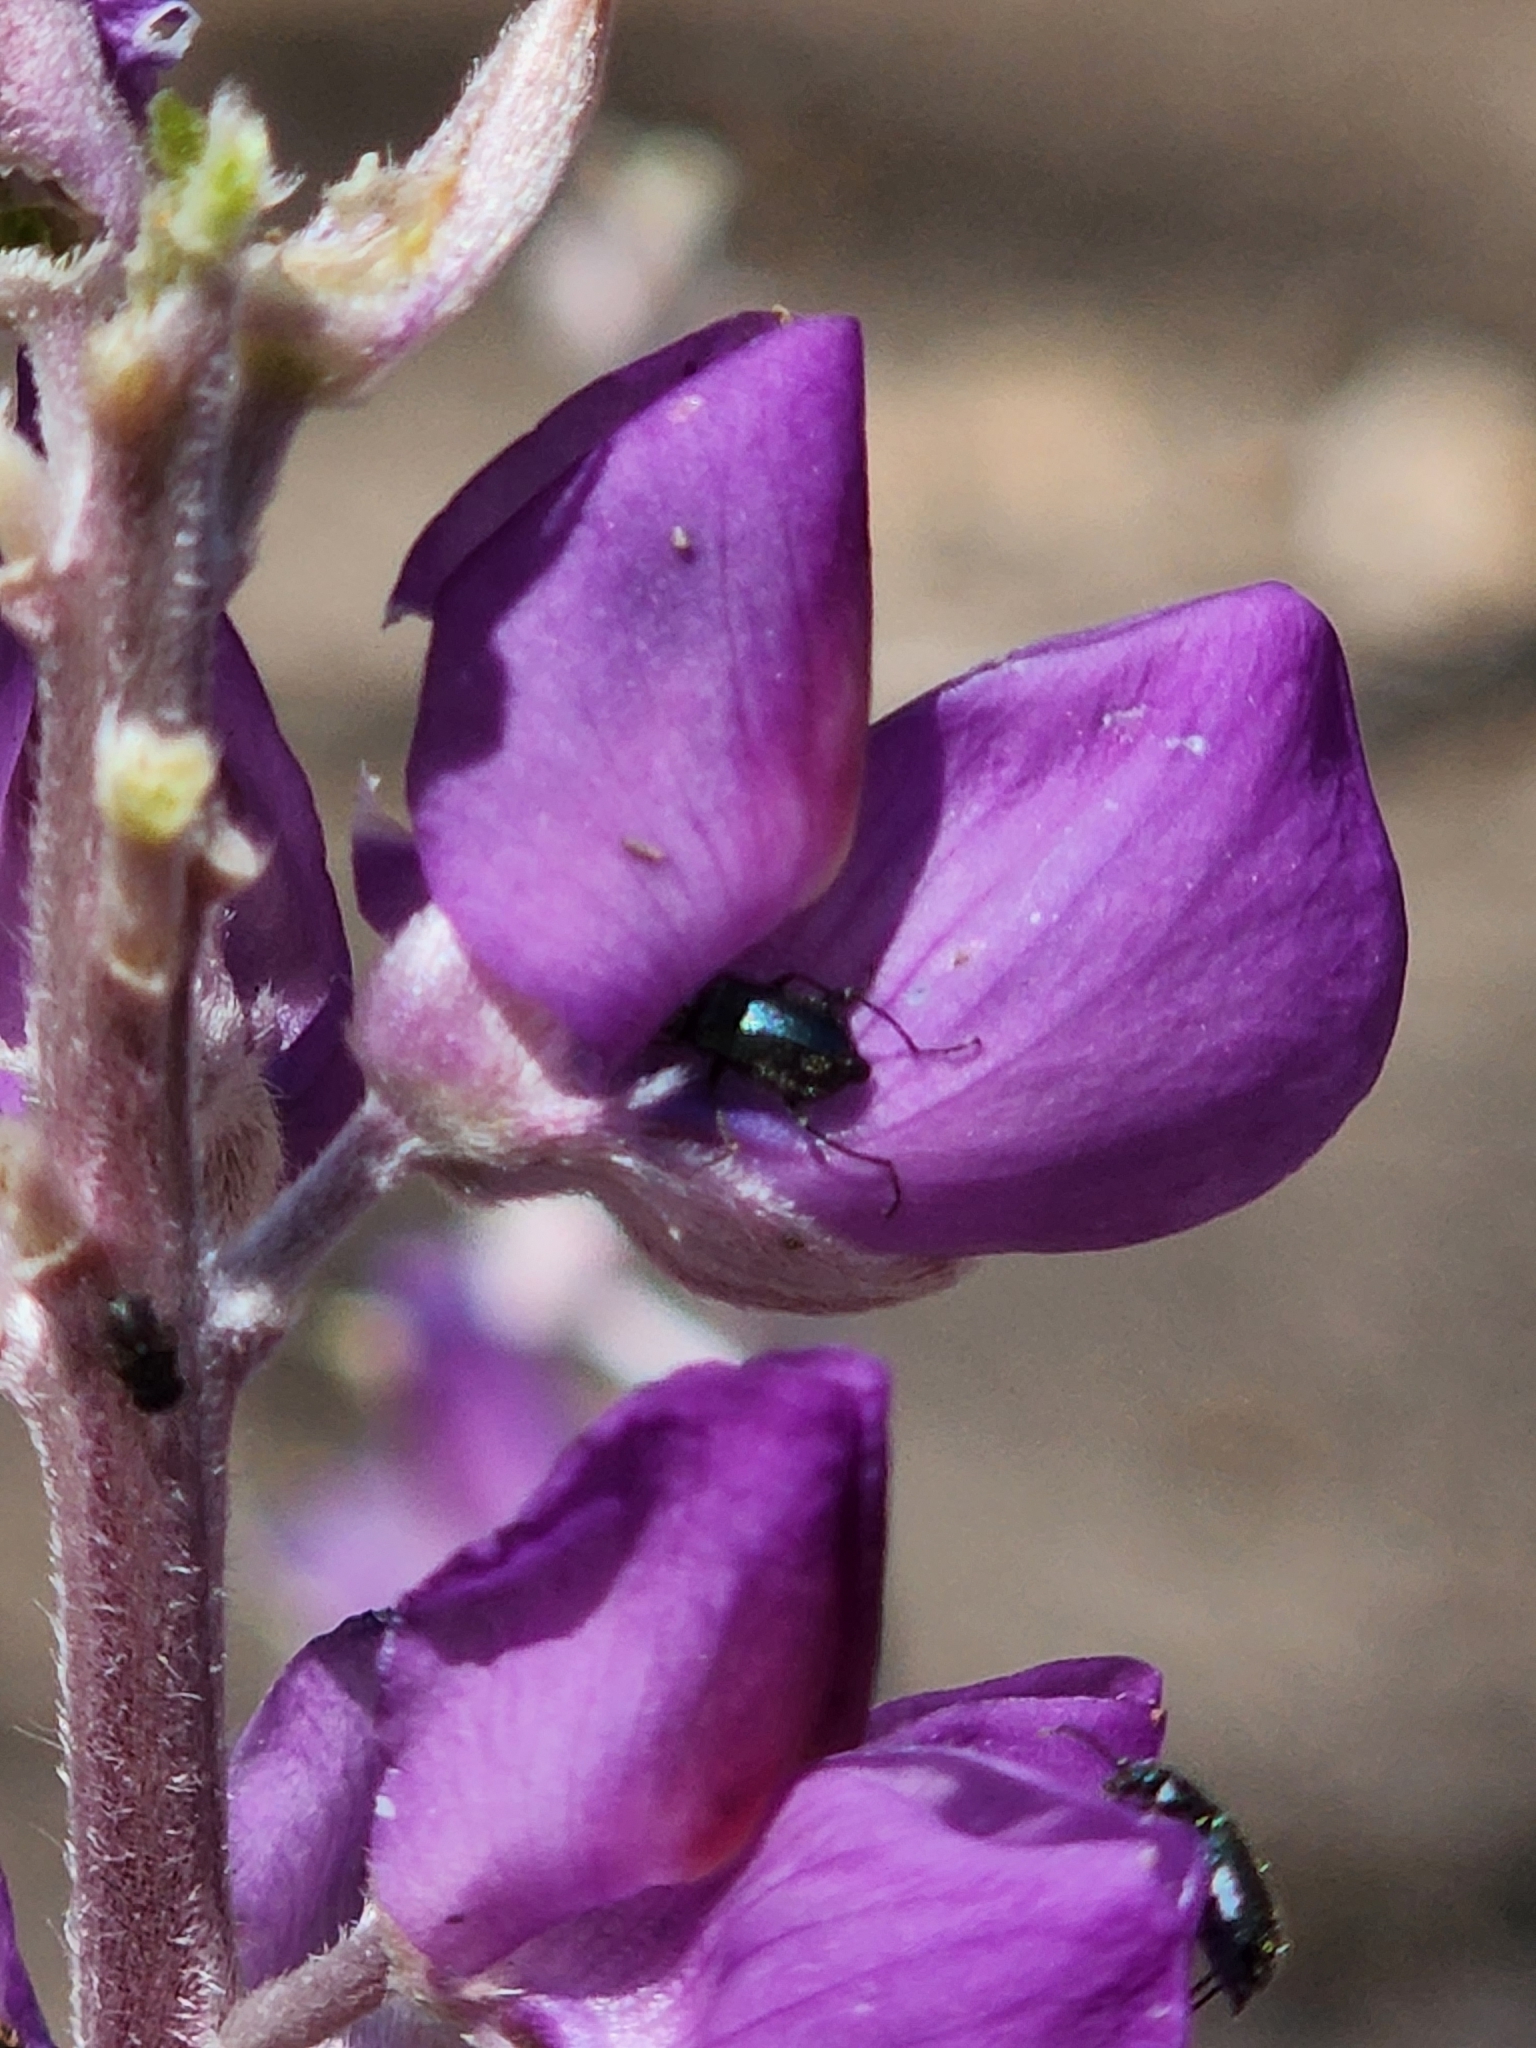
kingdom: Plantae
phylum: Tracheophyta
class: Magnoliopsida
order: Fabales
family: Fabaceae
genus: Lupinus
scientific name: Lupinus excubitus
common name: Grape soda lupine
